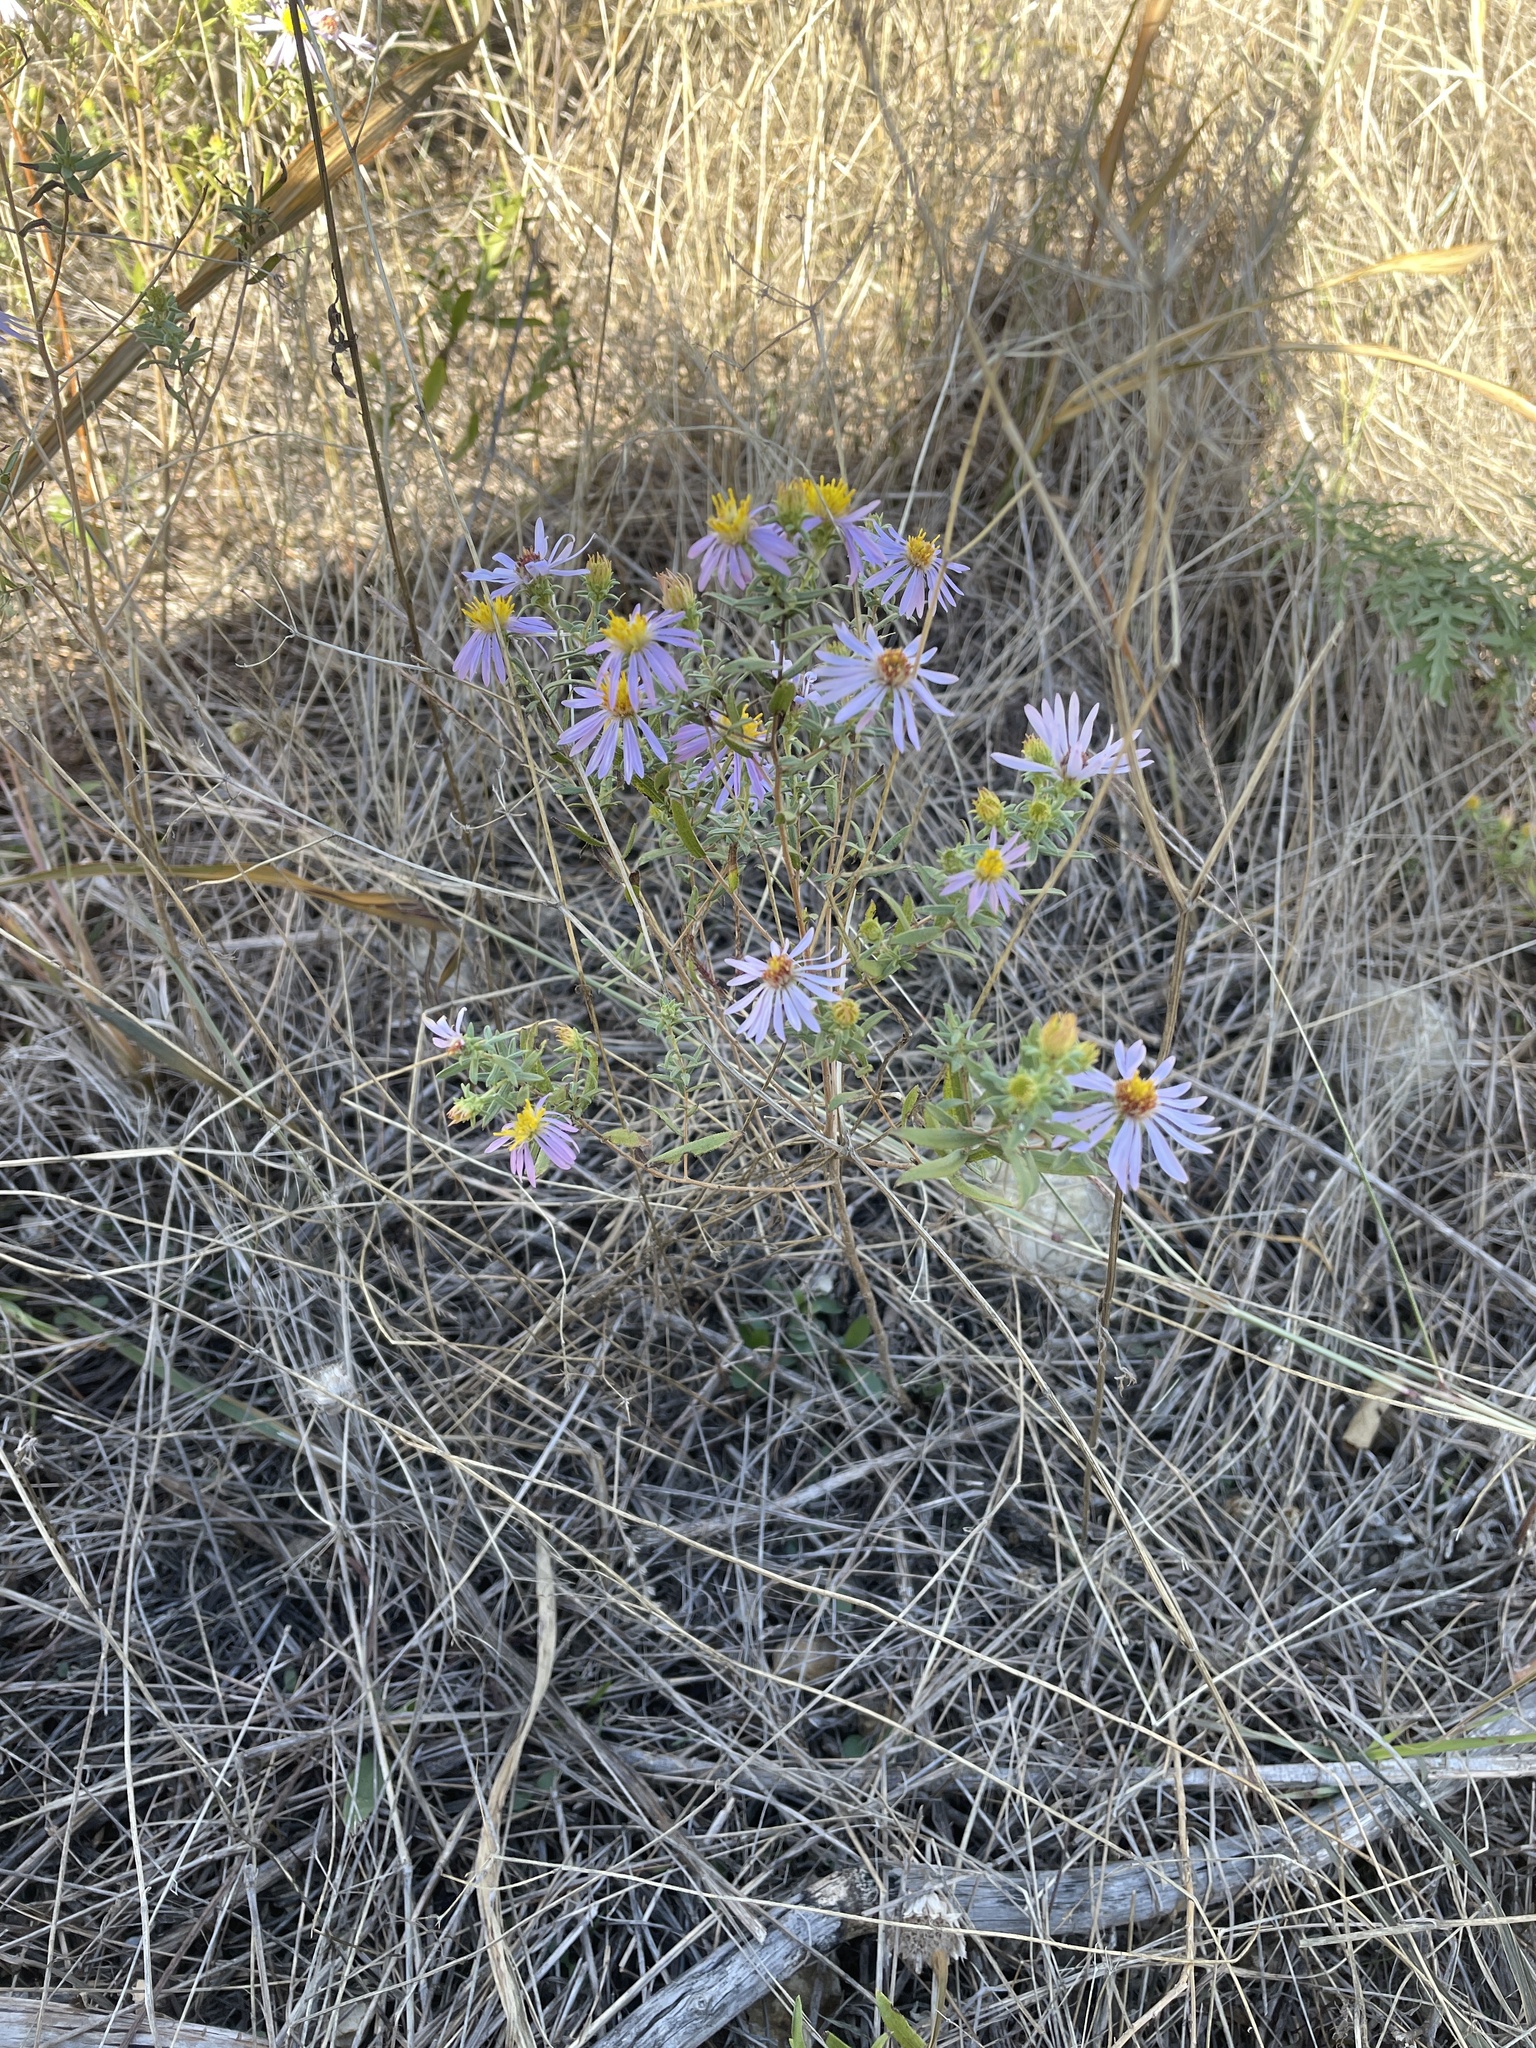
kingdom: Plantae
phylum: Tracheophyta
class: Magnoliopsida
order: Asterales
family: Asteraceae
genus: Symphyotrichum
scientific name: Symphyotrichum oblongifolium
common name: Aromatic aster
